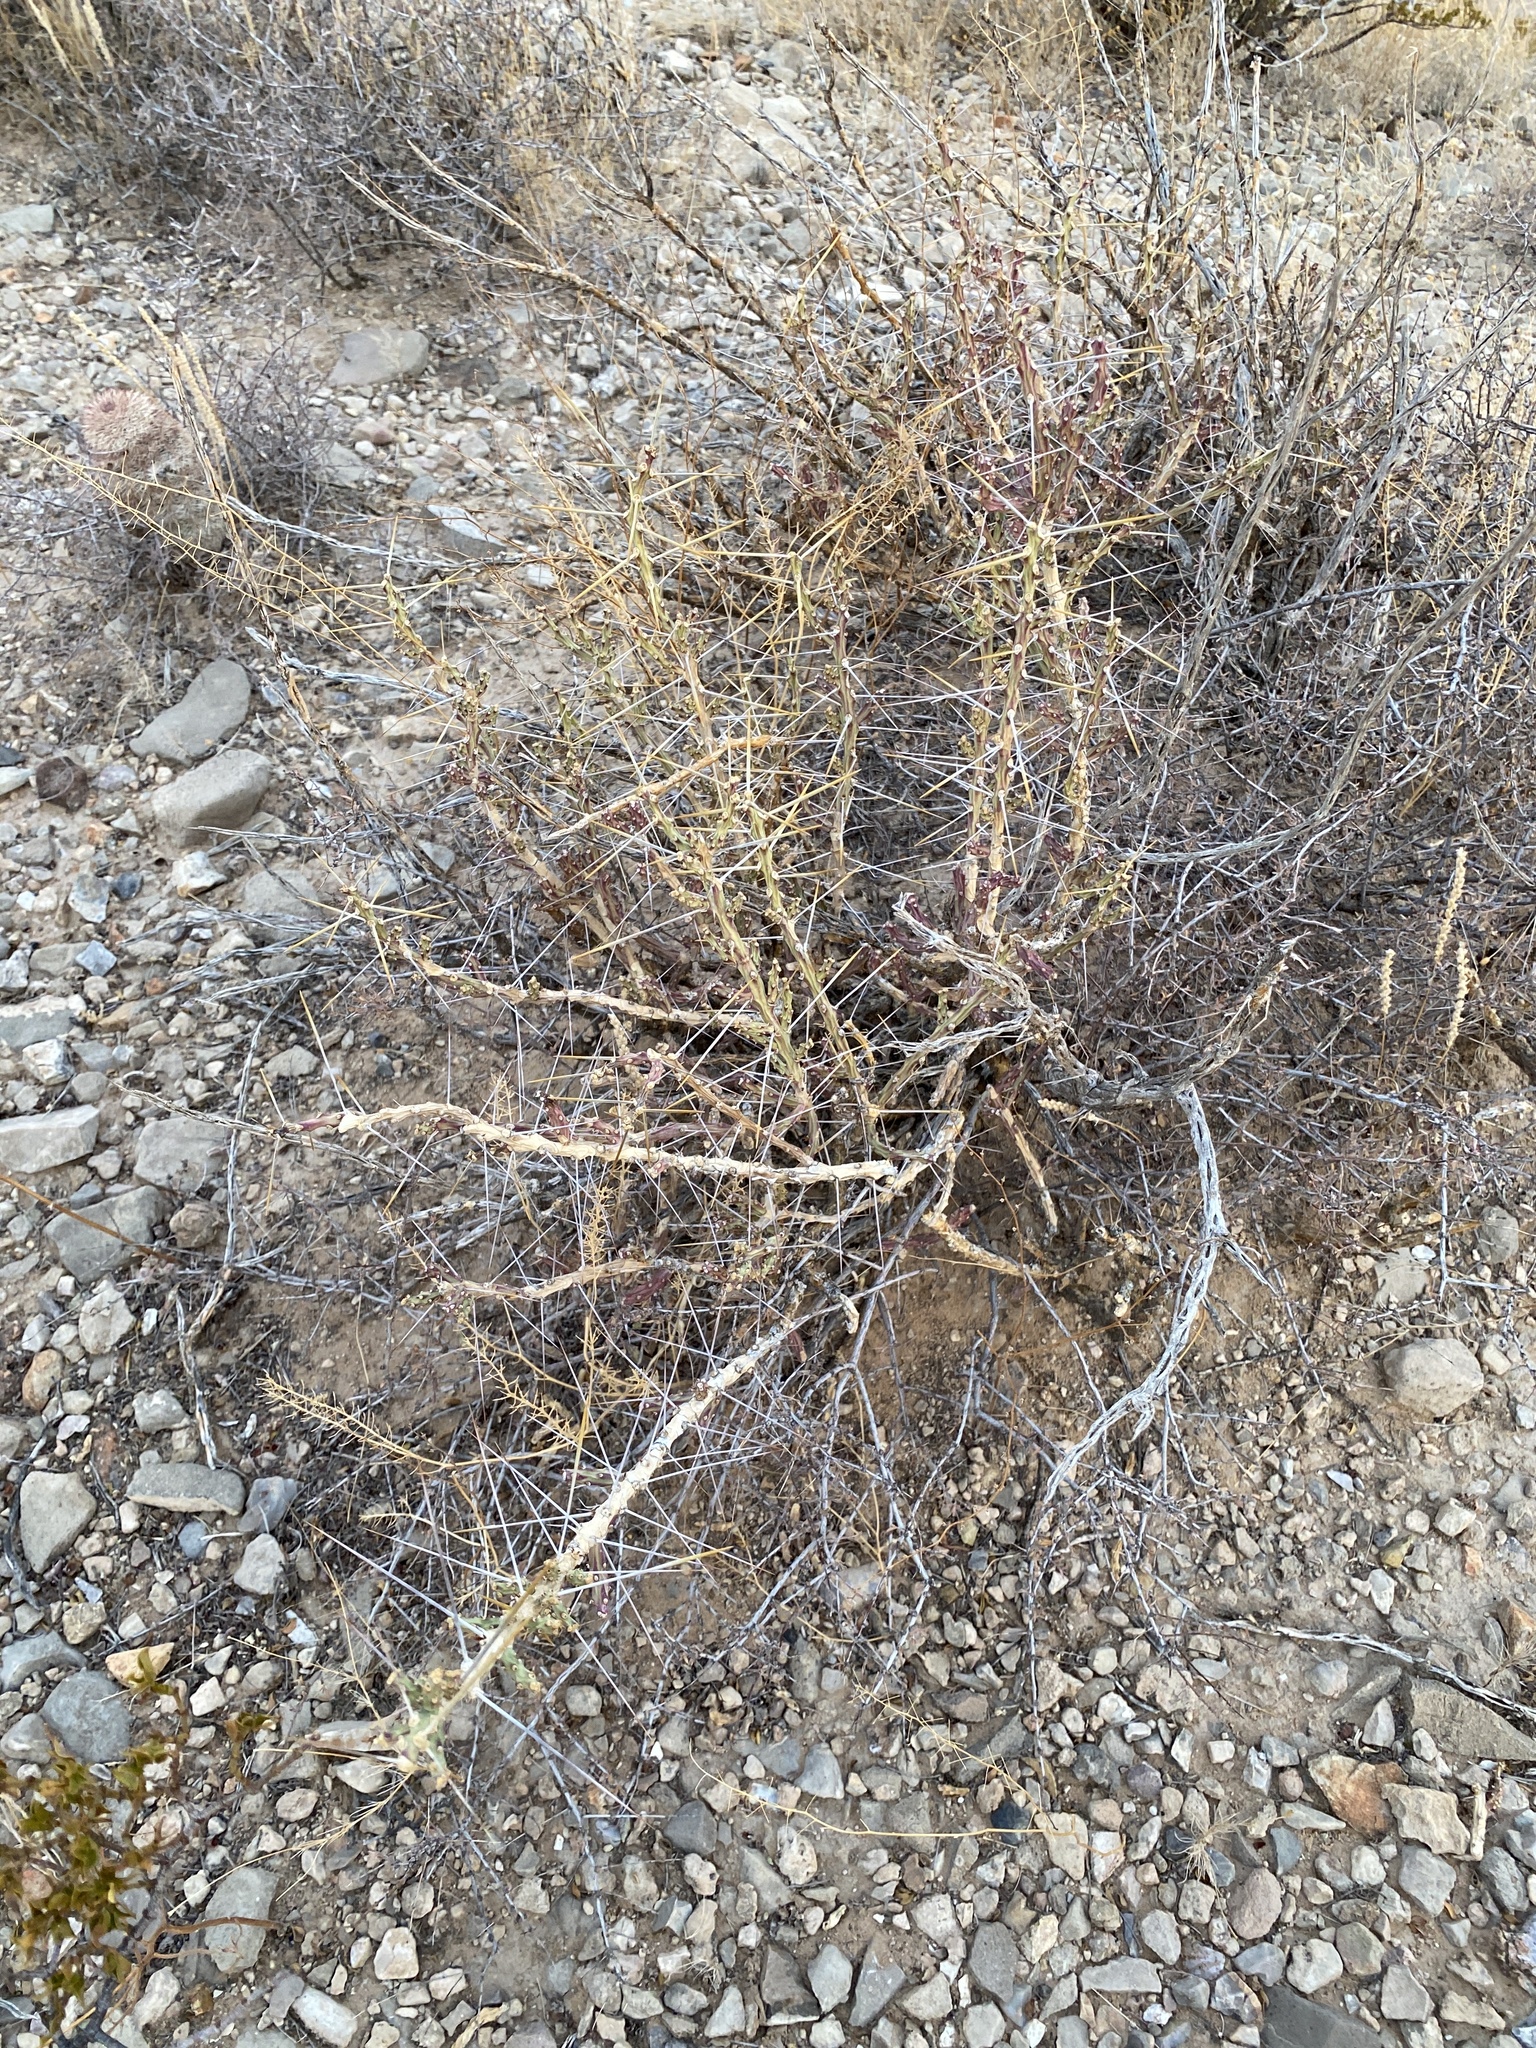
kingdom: Plantae
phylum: Tracheophyta
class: Magnoliopsida
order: Caryophyllales
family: Cactaceae
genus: Cylindropuntia
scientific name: Cylindropuntia leptocaulis
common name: Christmas cactus
